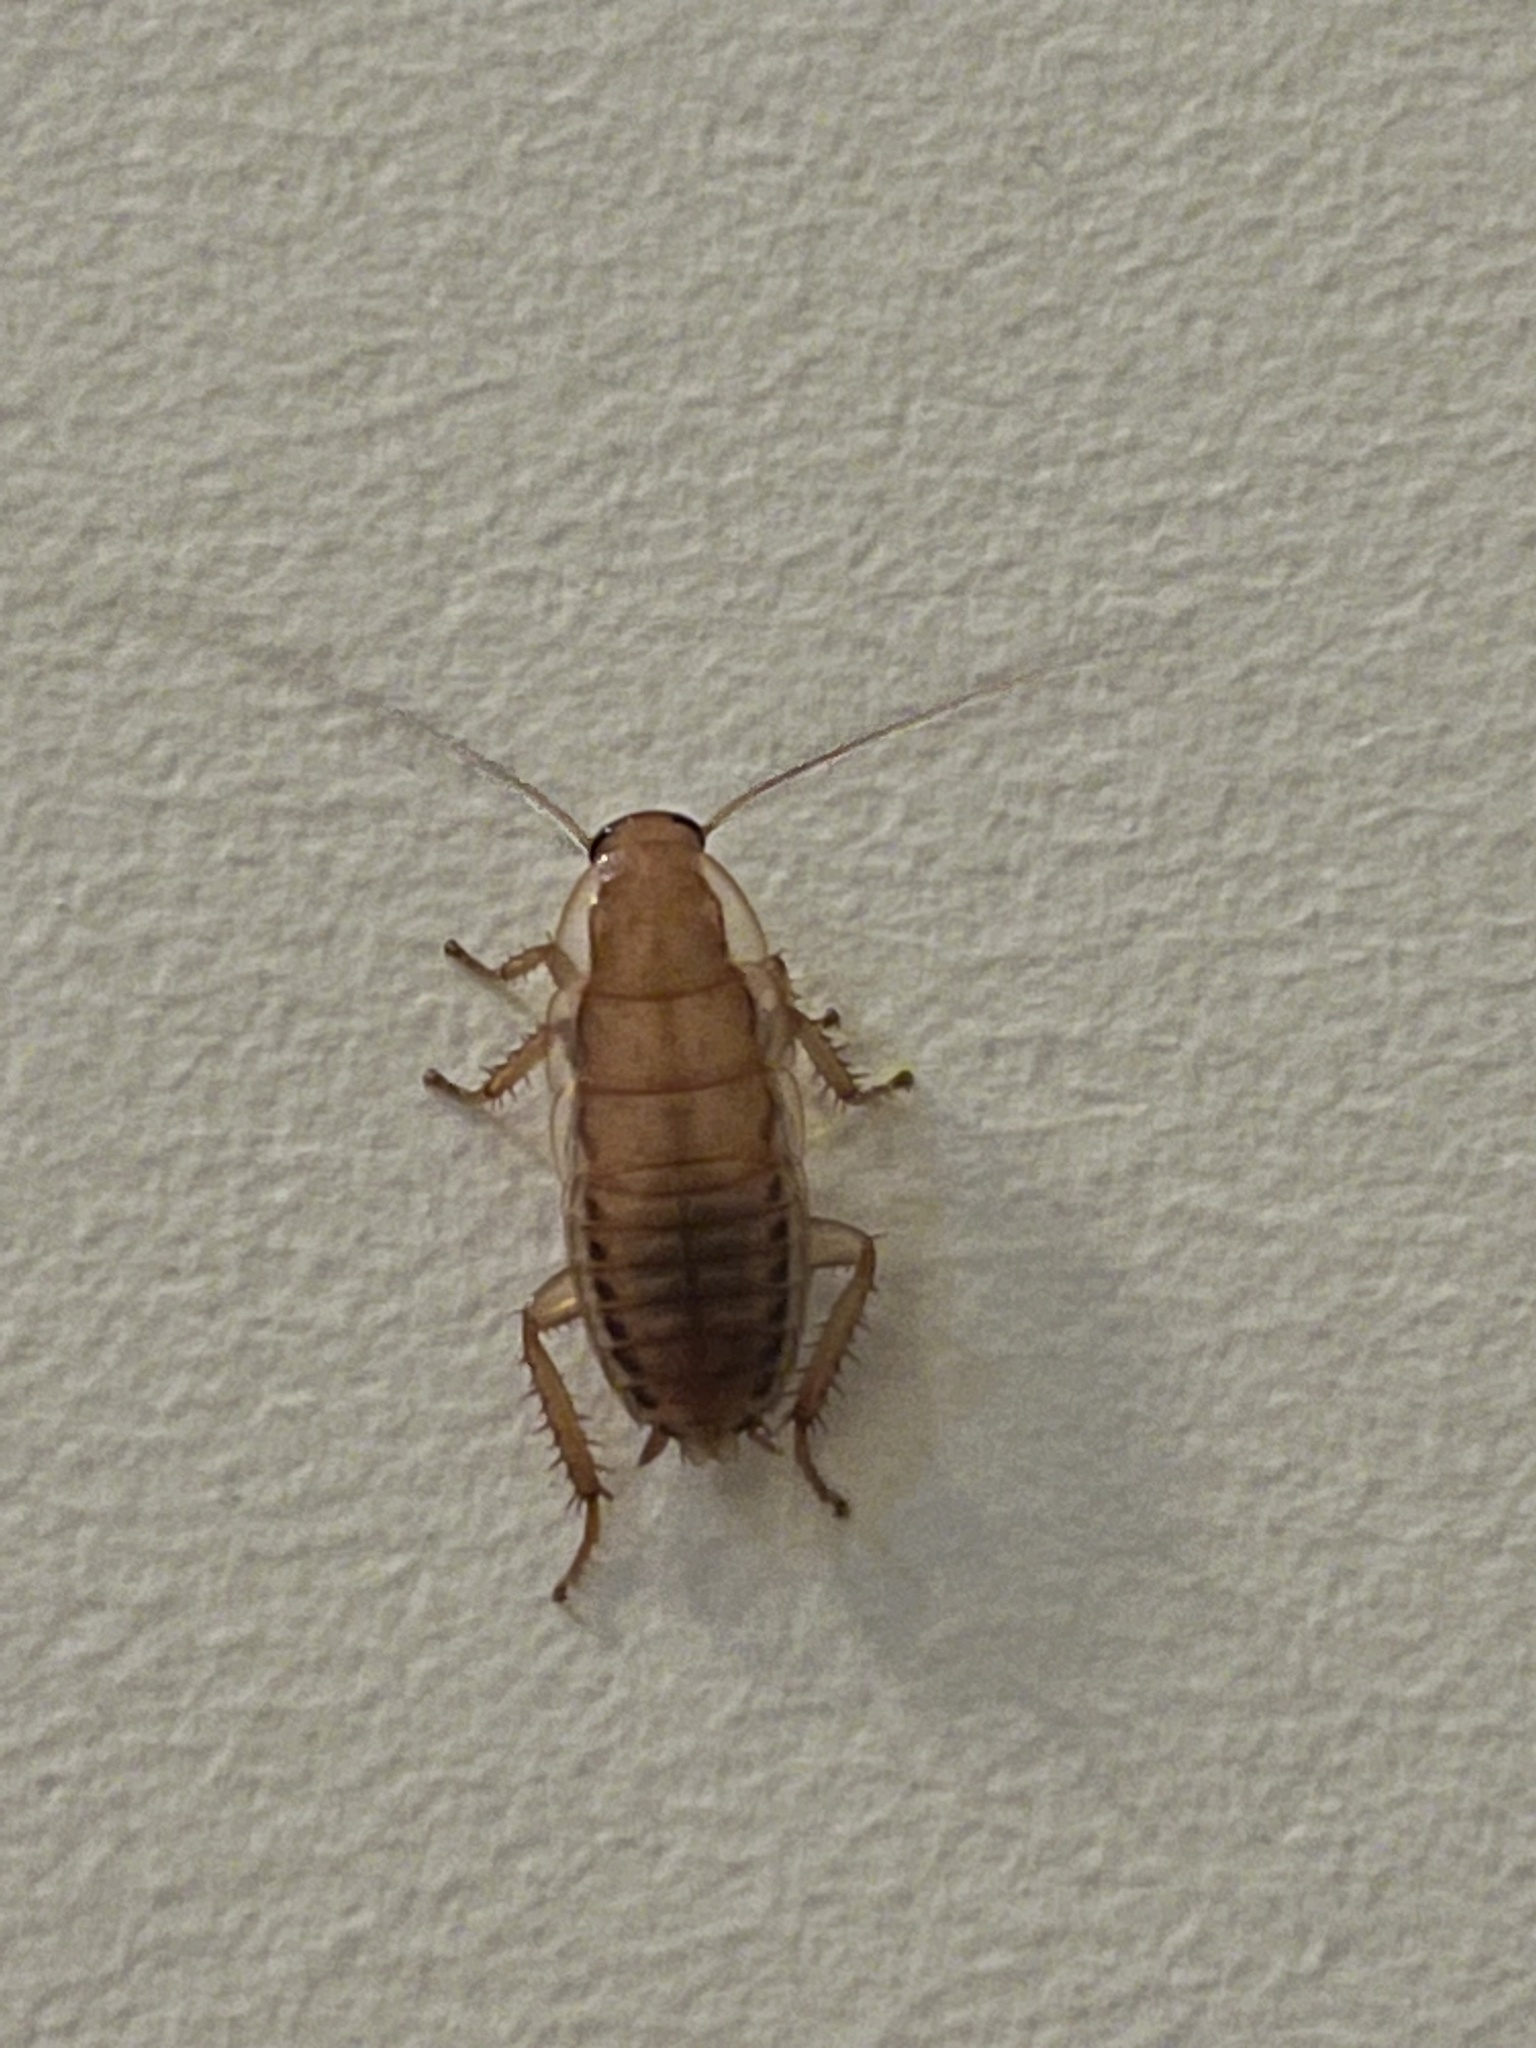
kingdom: Animalia
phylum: Arthropoda
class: Insecta
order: Blattodea
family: Blattidae
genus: Drymaplaneta
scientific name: Drymaplaneta heydeniana
